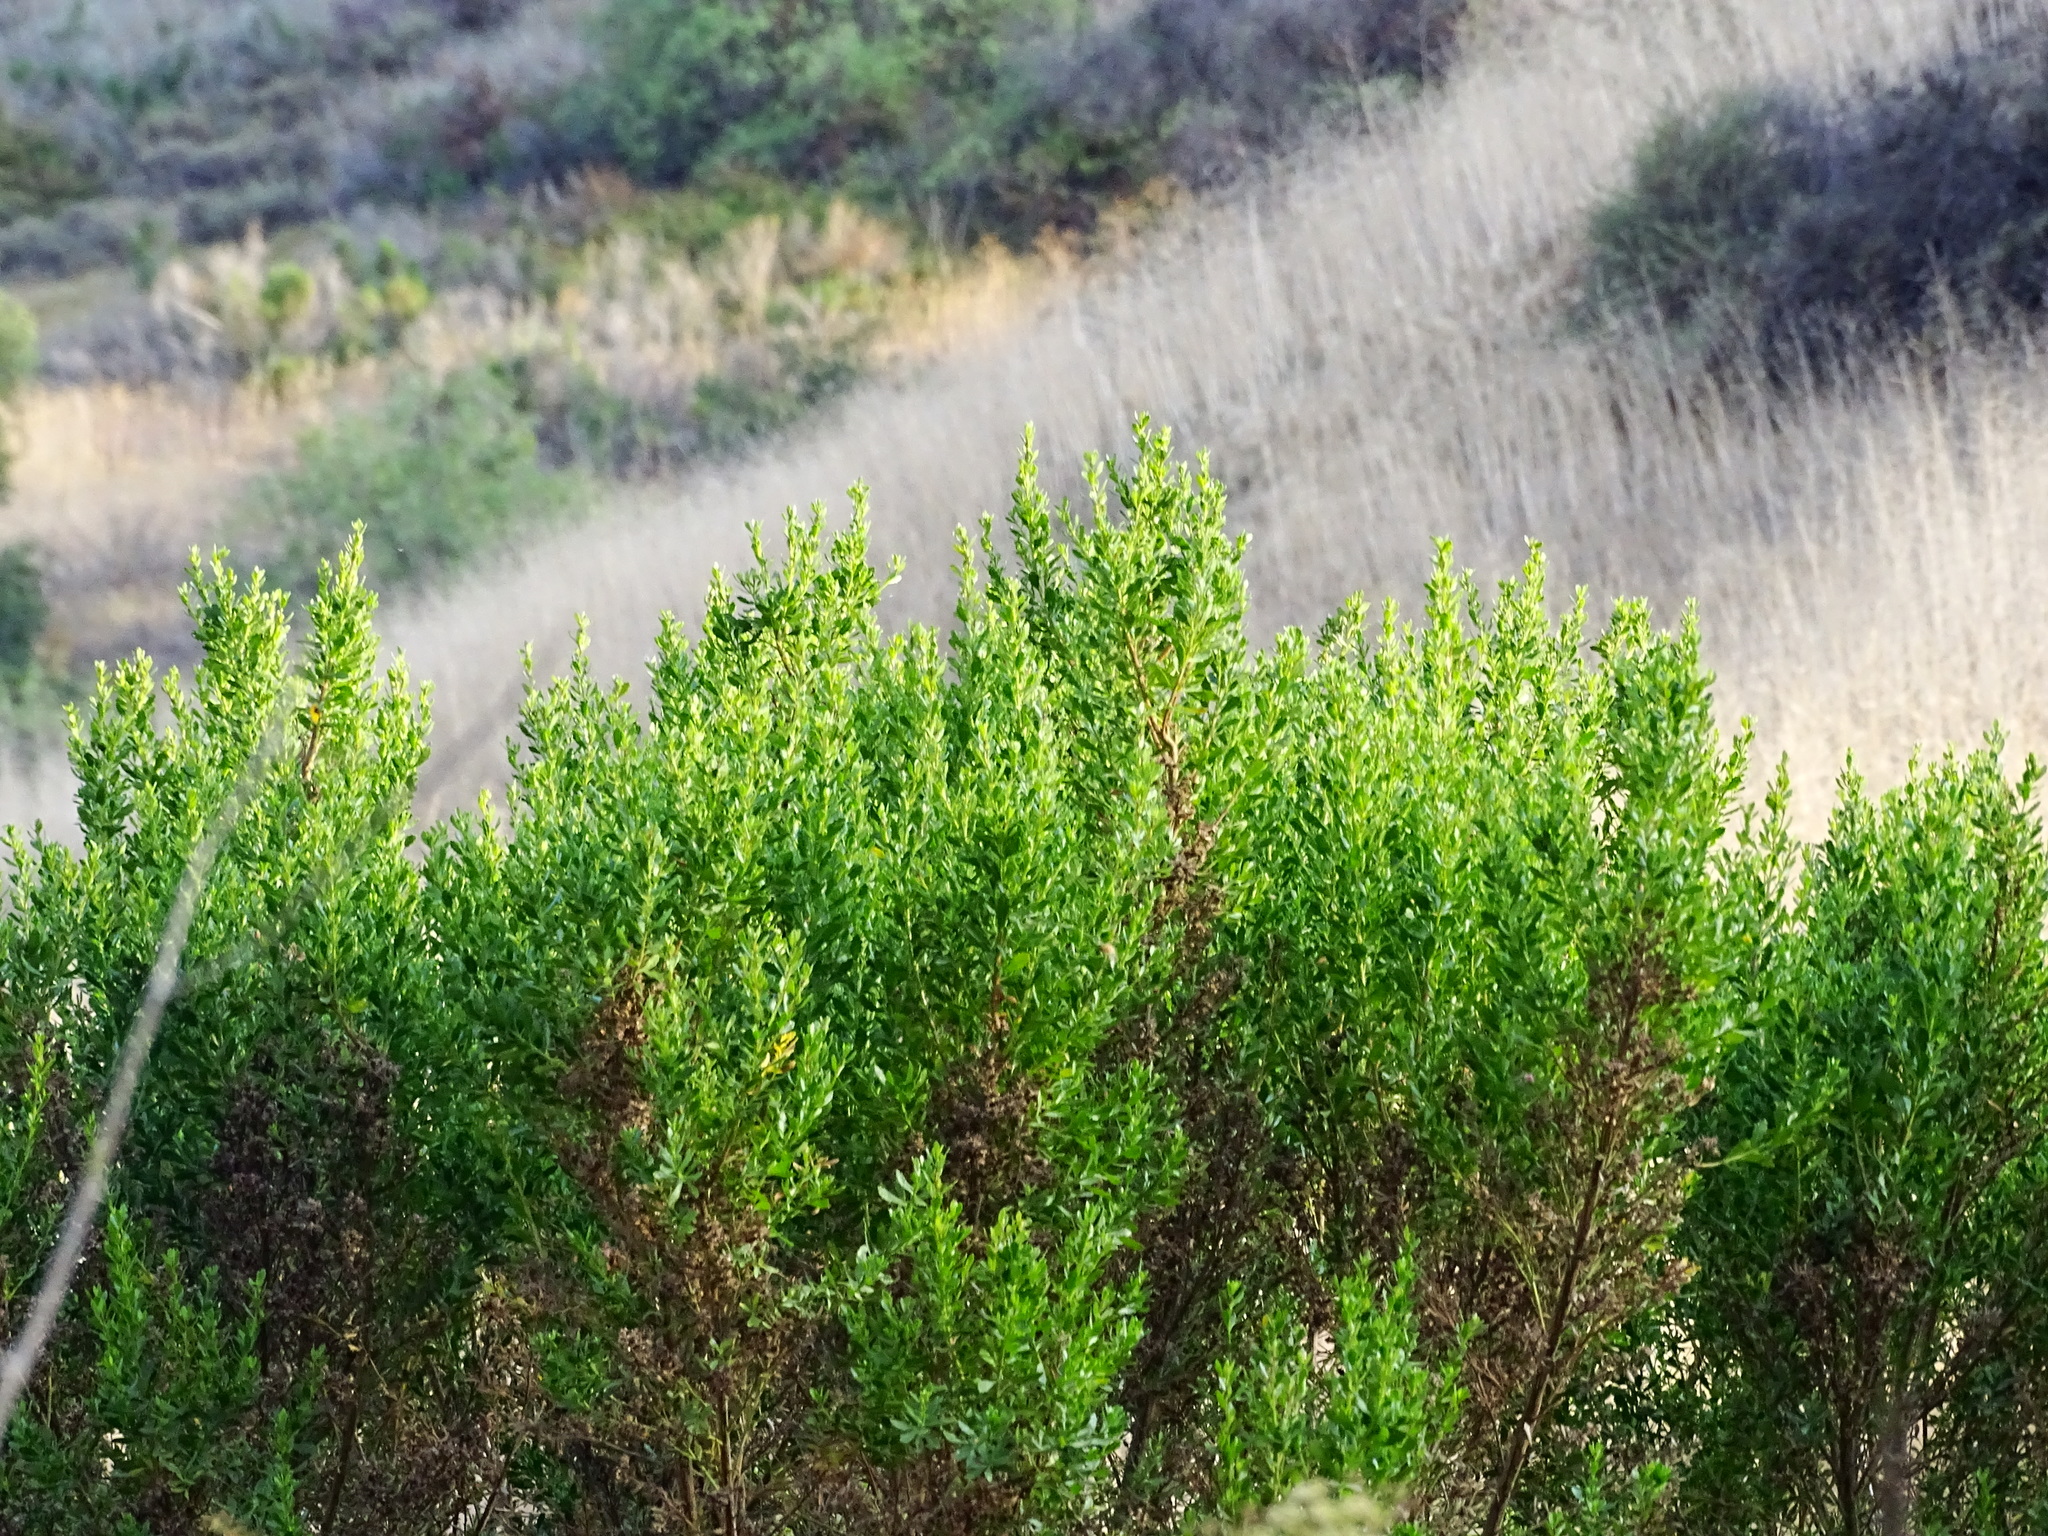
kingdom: Plantae
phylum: Tracheophyta
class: Magnoliopsida
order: Asterales
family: Asteraceae
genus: Baccharis
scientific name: Baccharis pilularis
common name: Coyotebrush
